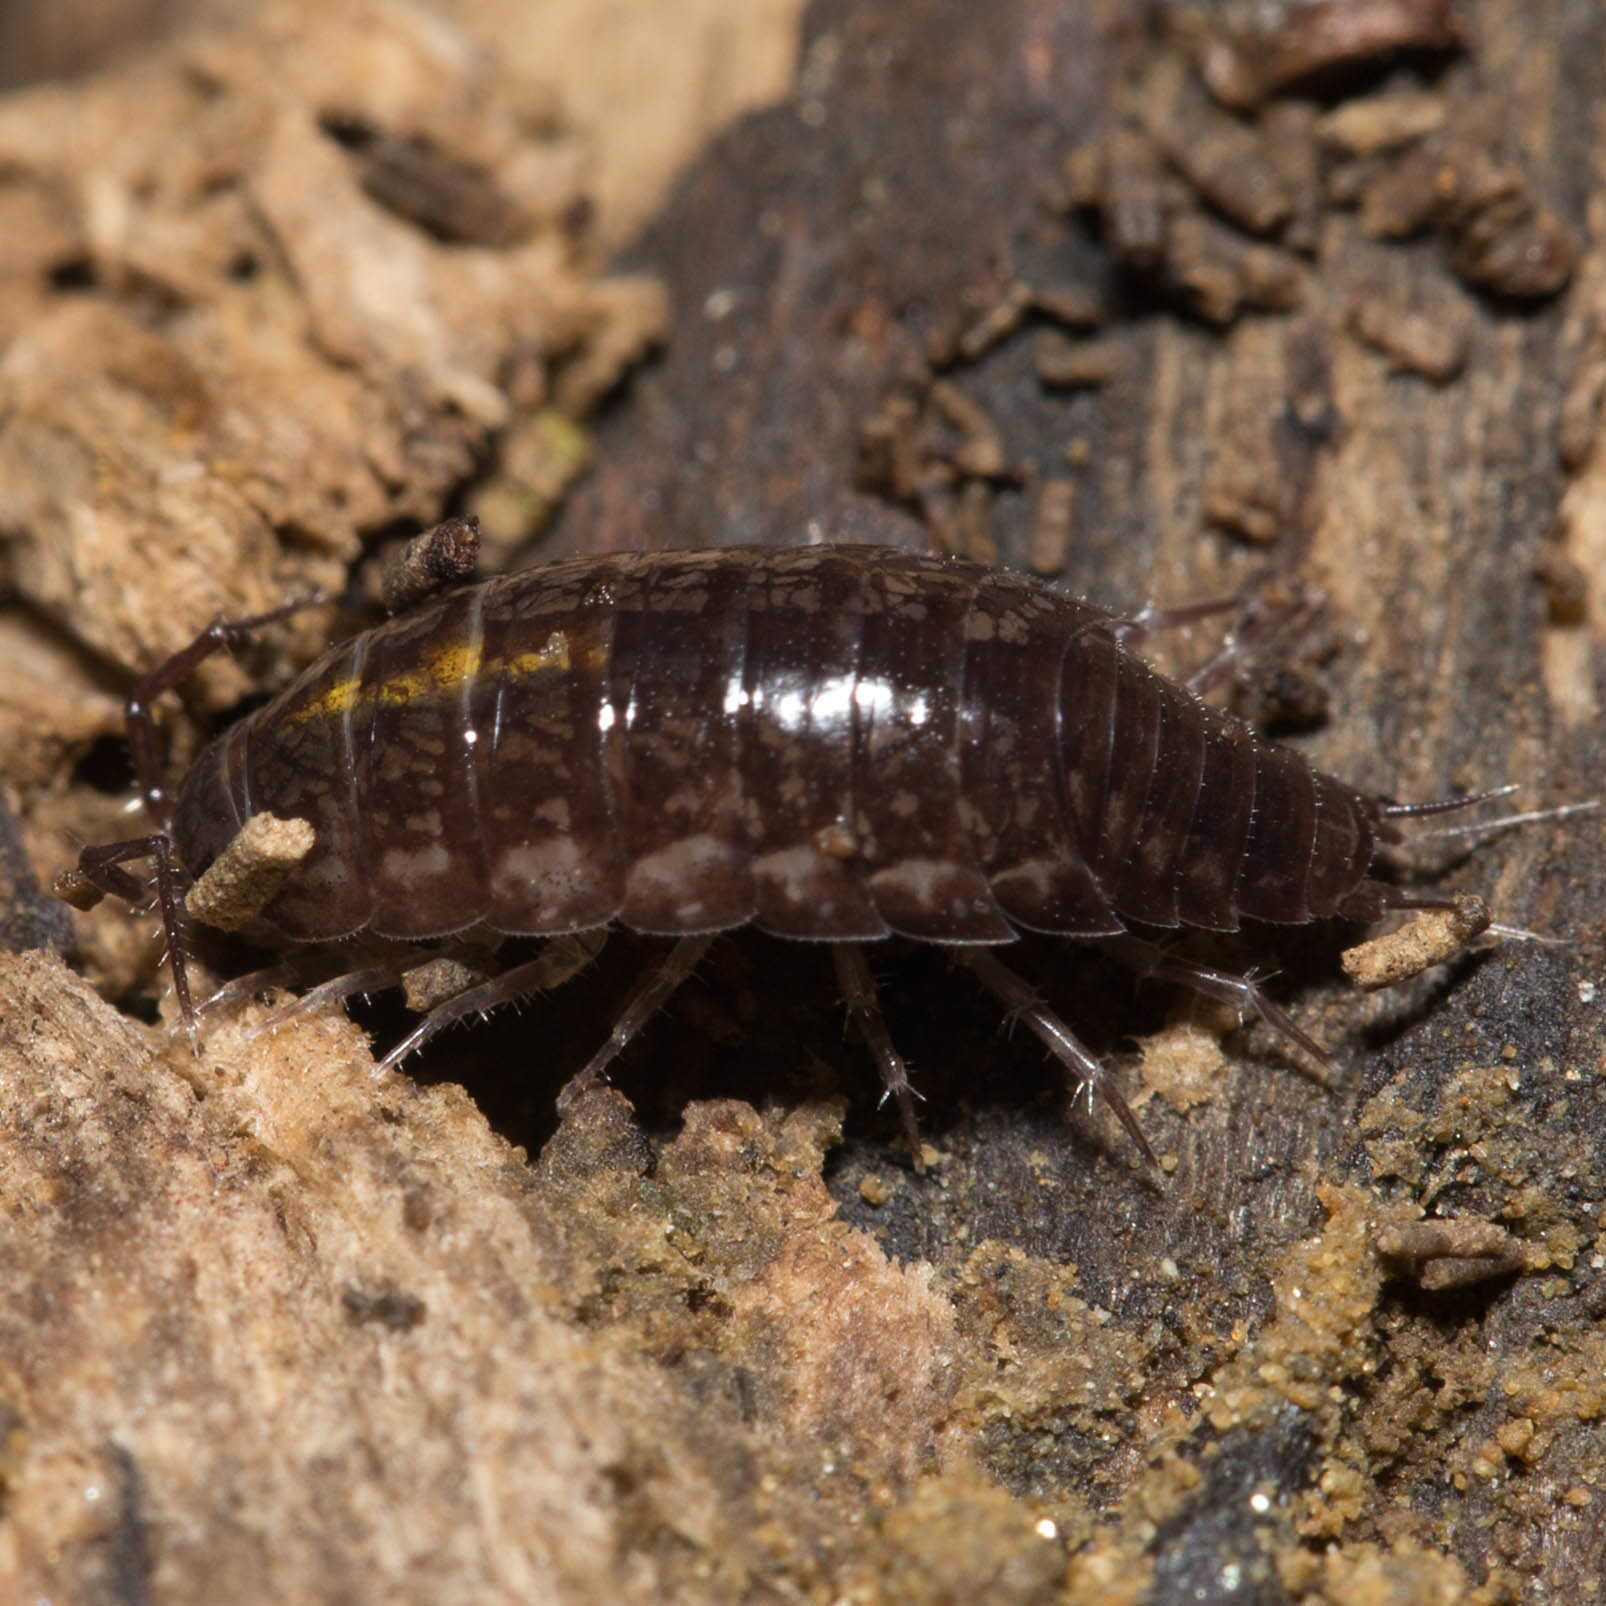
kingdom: Animalia
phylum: Arthropoda
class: Malacostraca
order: Isopoda
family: Ligiidae
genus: Ligidium
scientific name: Ligidium gracile
